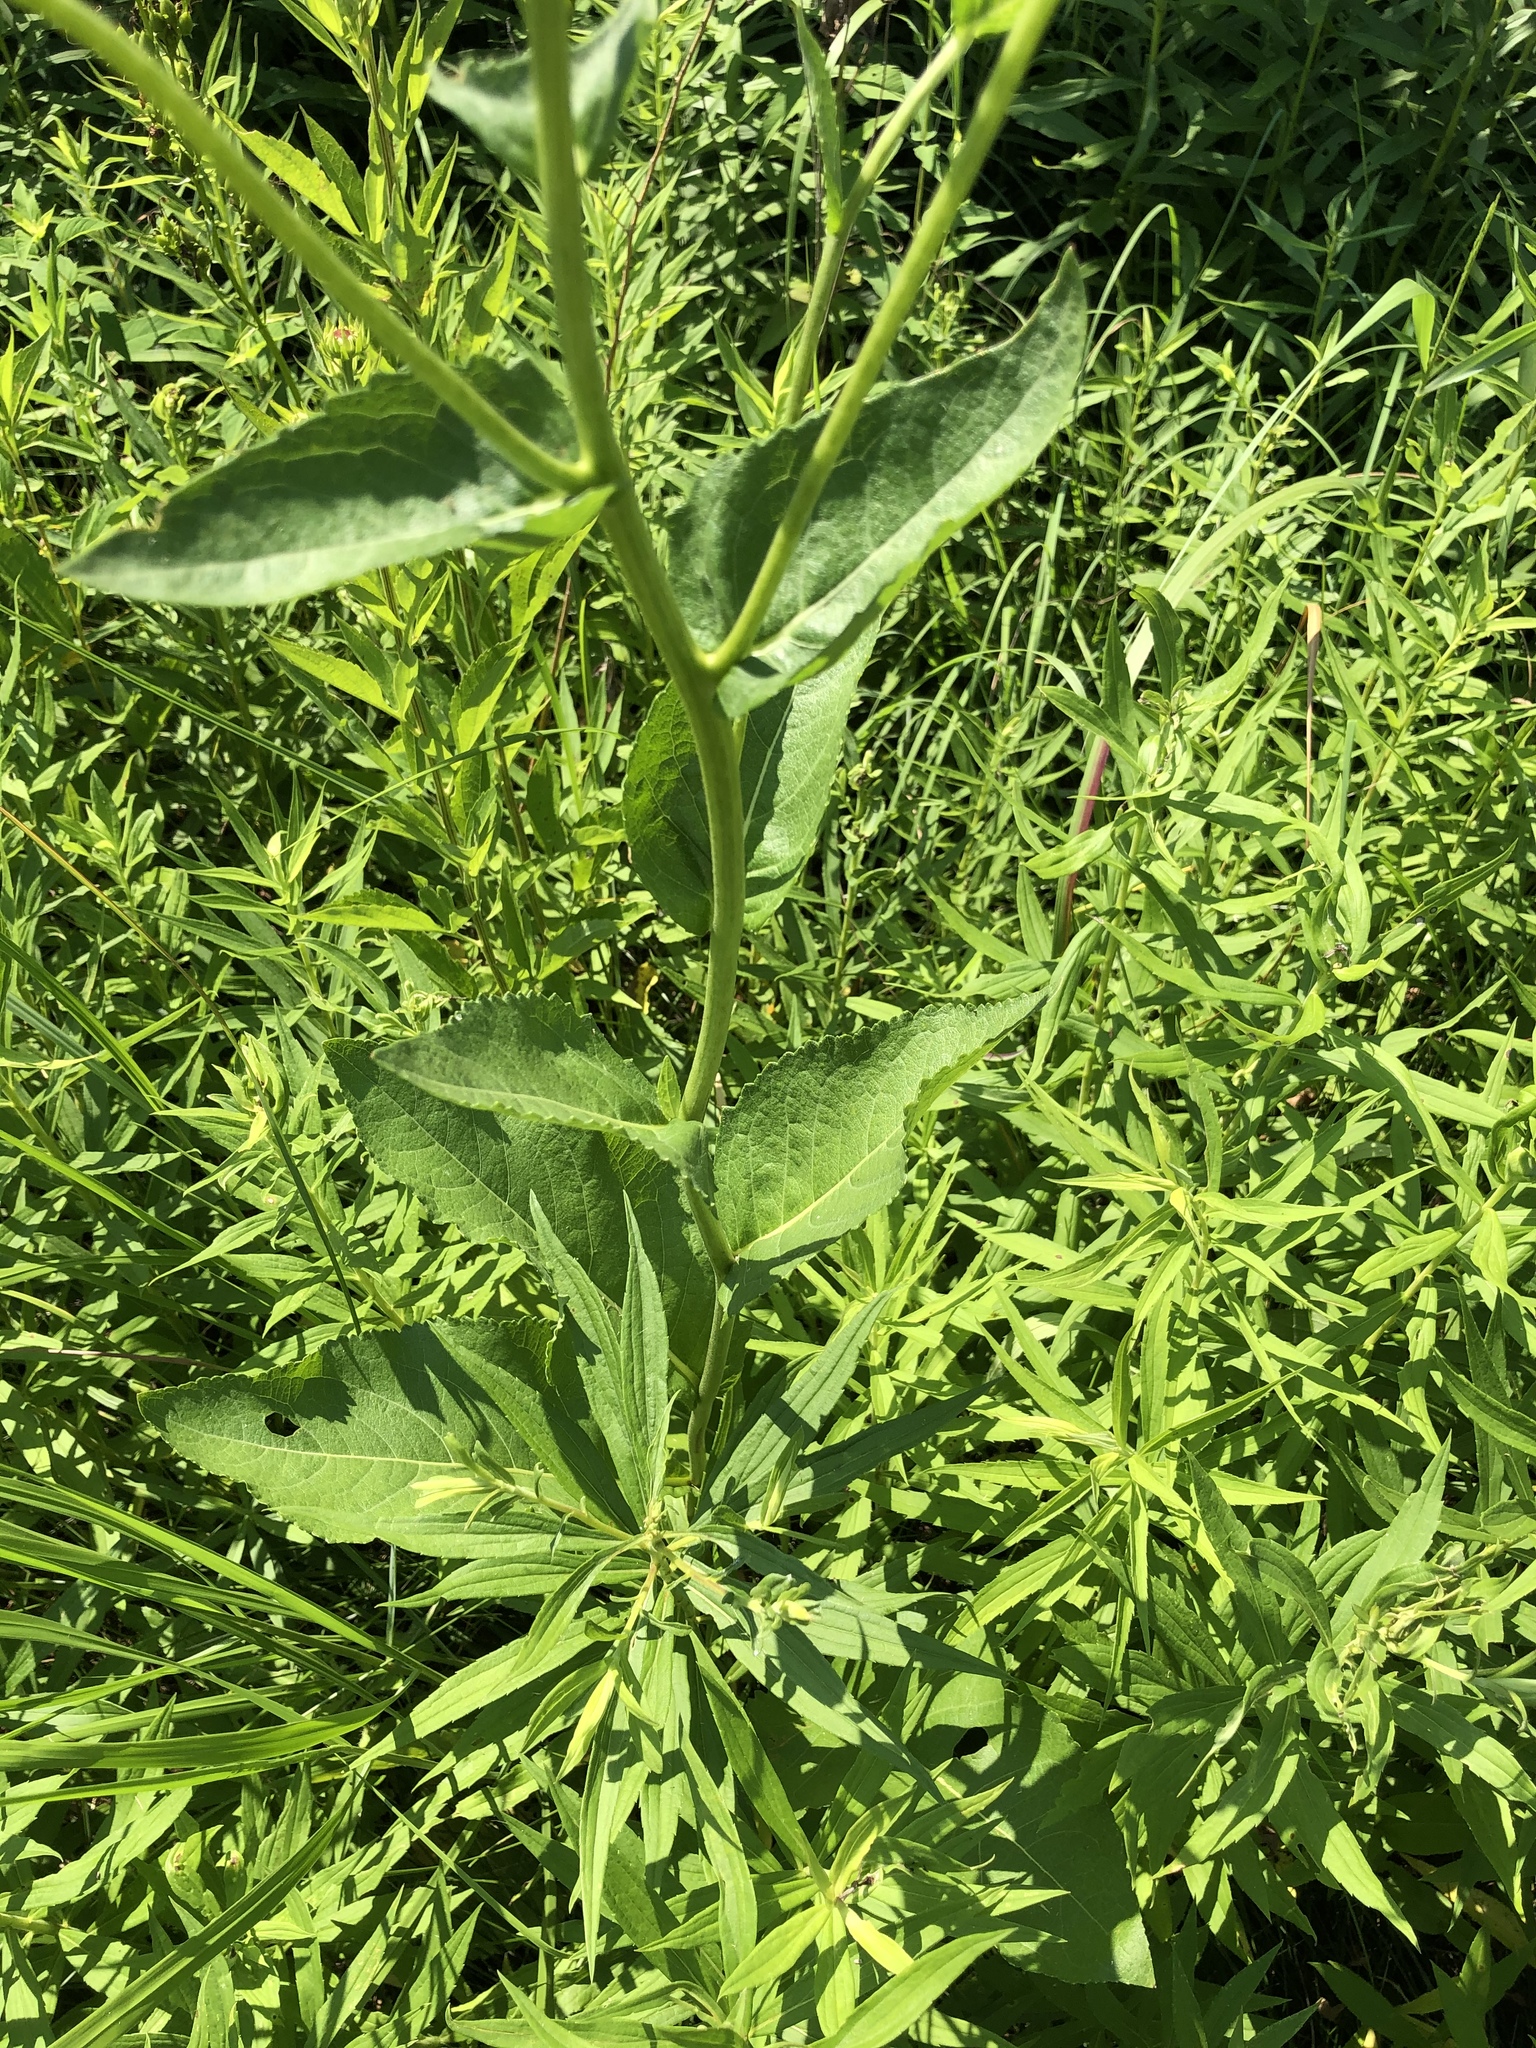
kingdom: Plantae
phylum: Tracheophyta
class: Magnoliopsida
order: Asterales
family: Asteraceae
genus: Parthenium
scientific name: Parthenium integrifolium
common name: American feverfew
